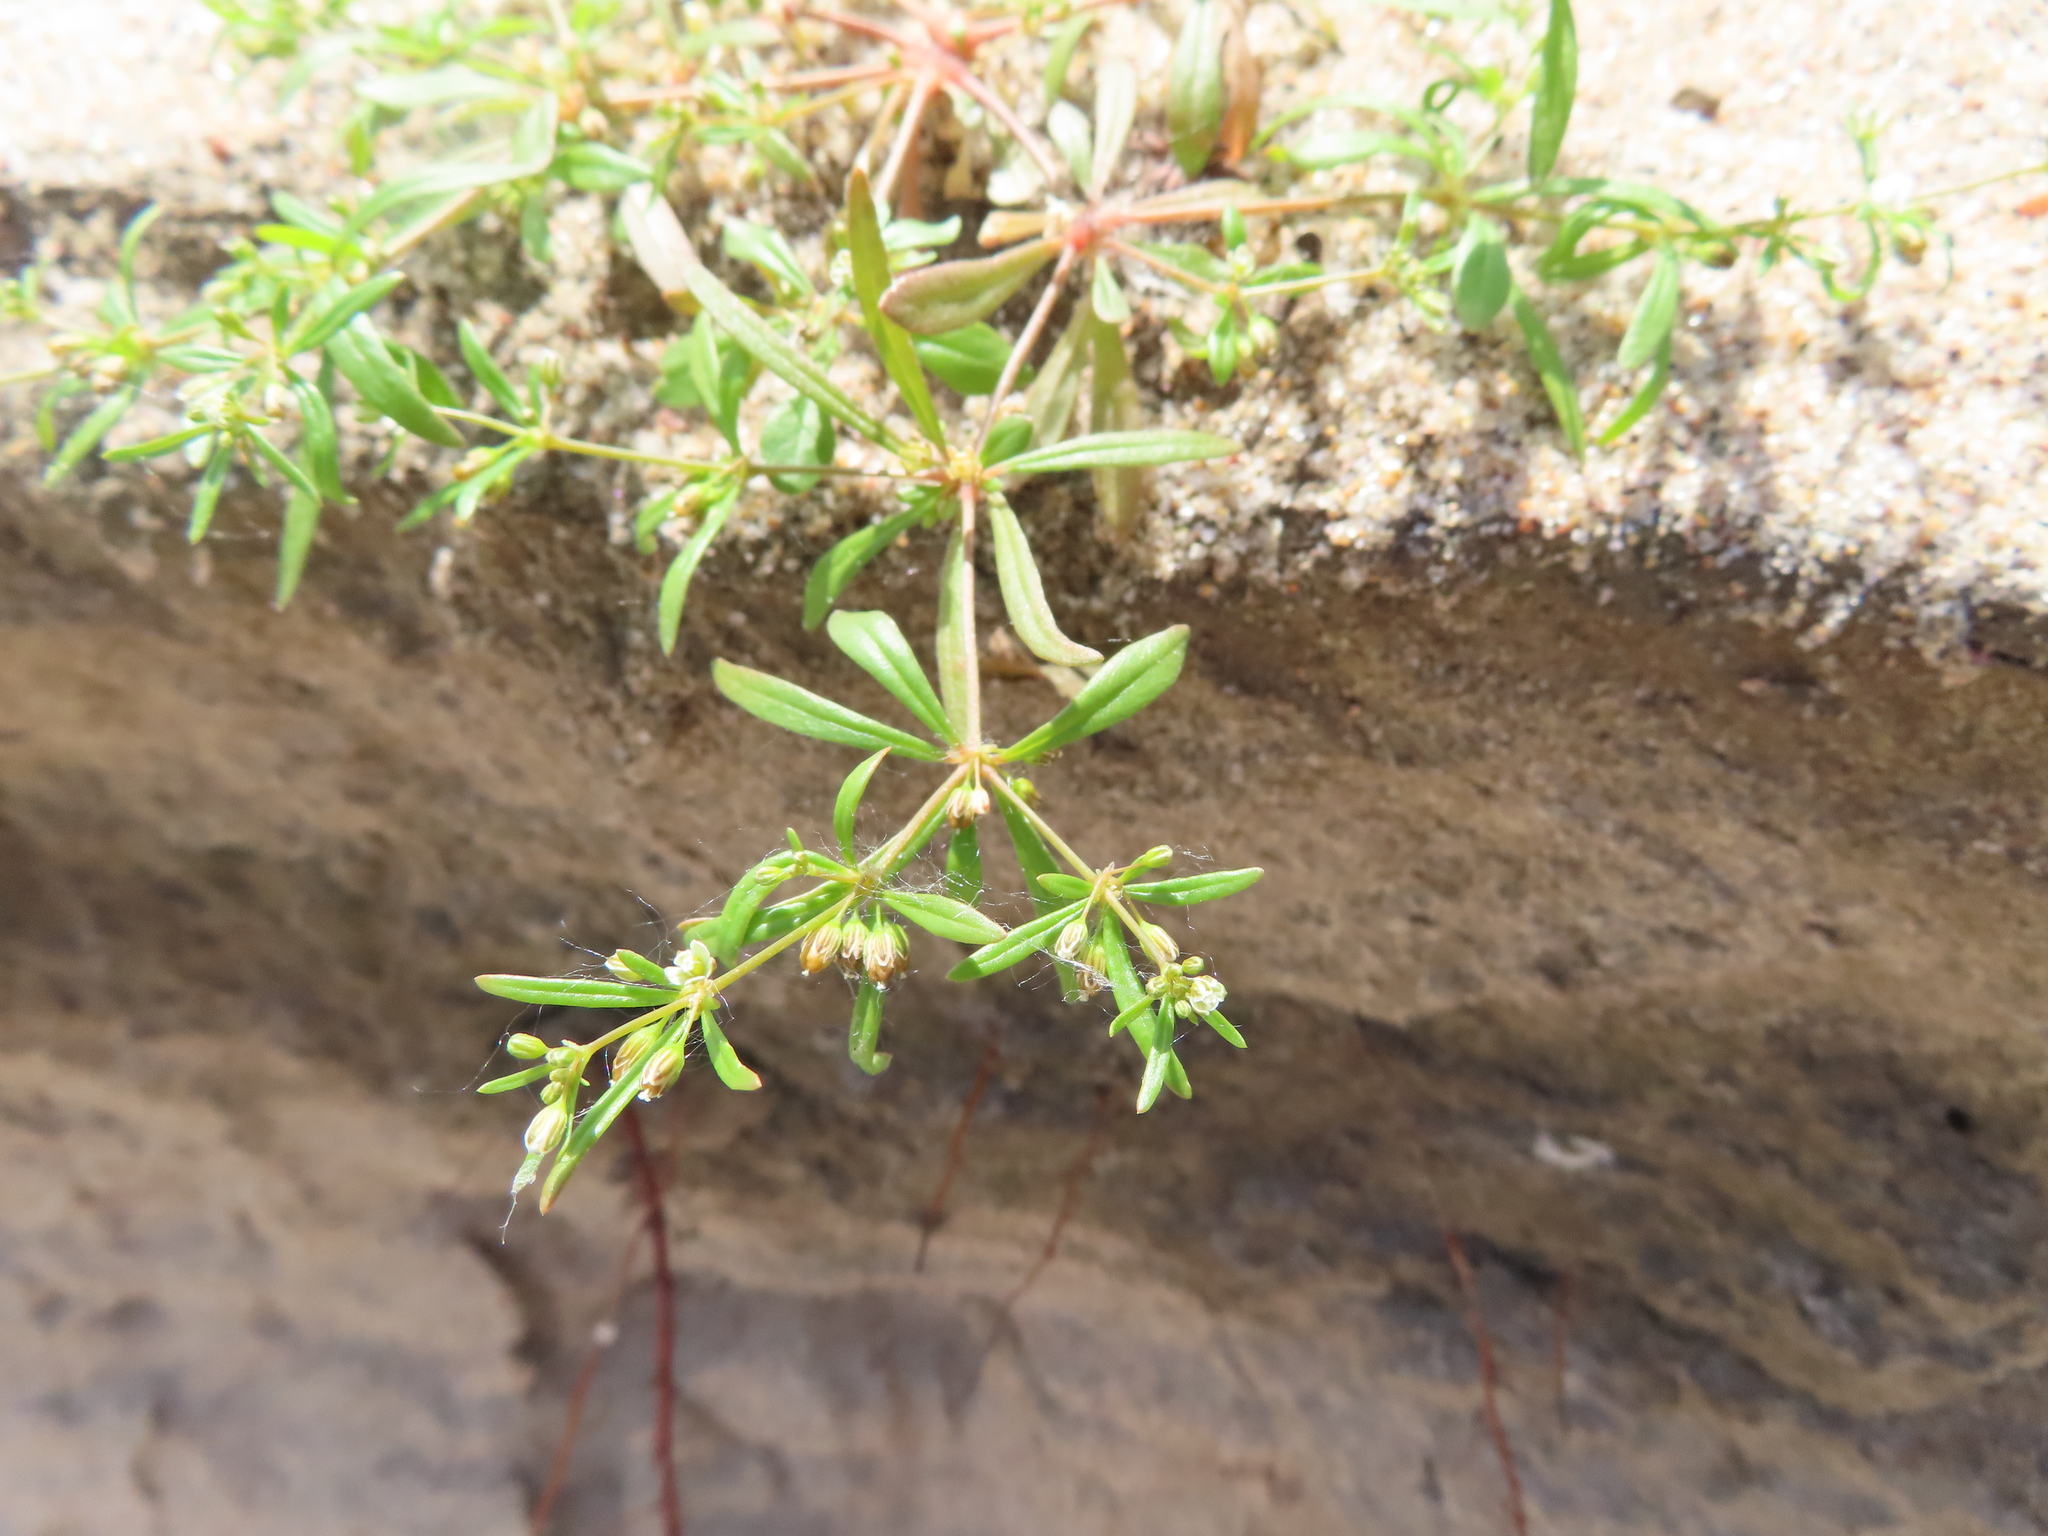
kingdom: Plantae
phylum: Tracheophyta
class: Magnoliopsida
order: Caryophyllales
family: Molluginaceae
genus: Mollugo
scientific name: Mollugo verticillata
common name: Green carpetweed
